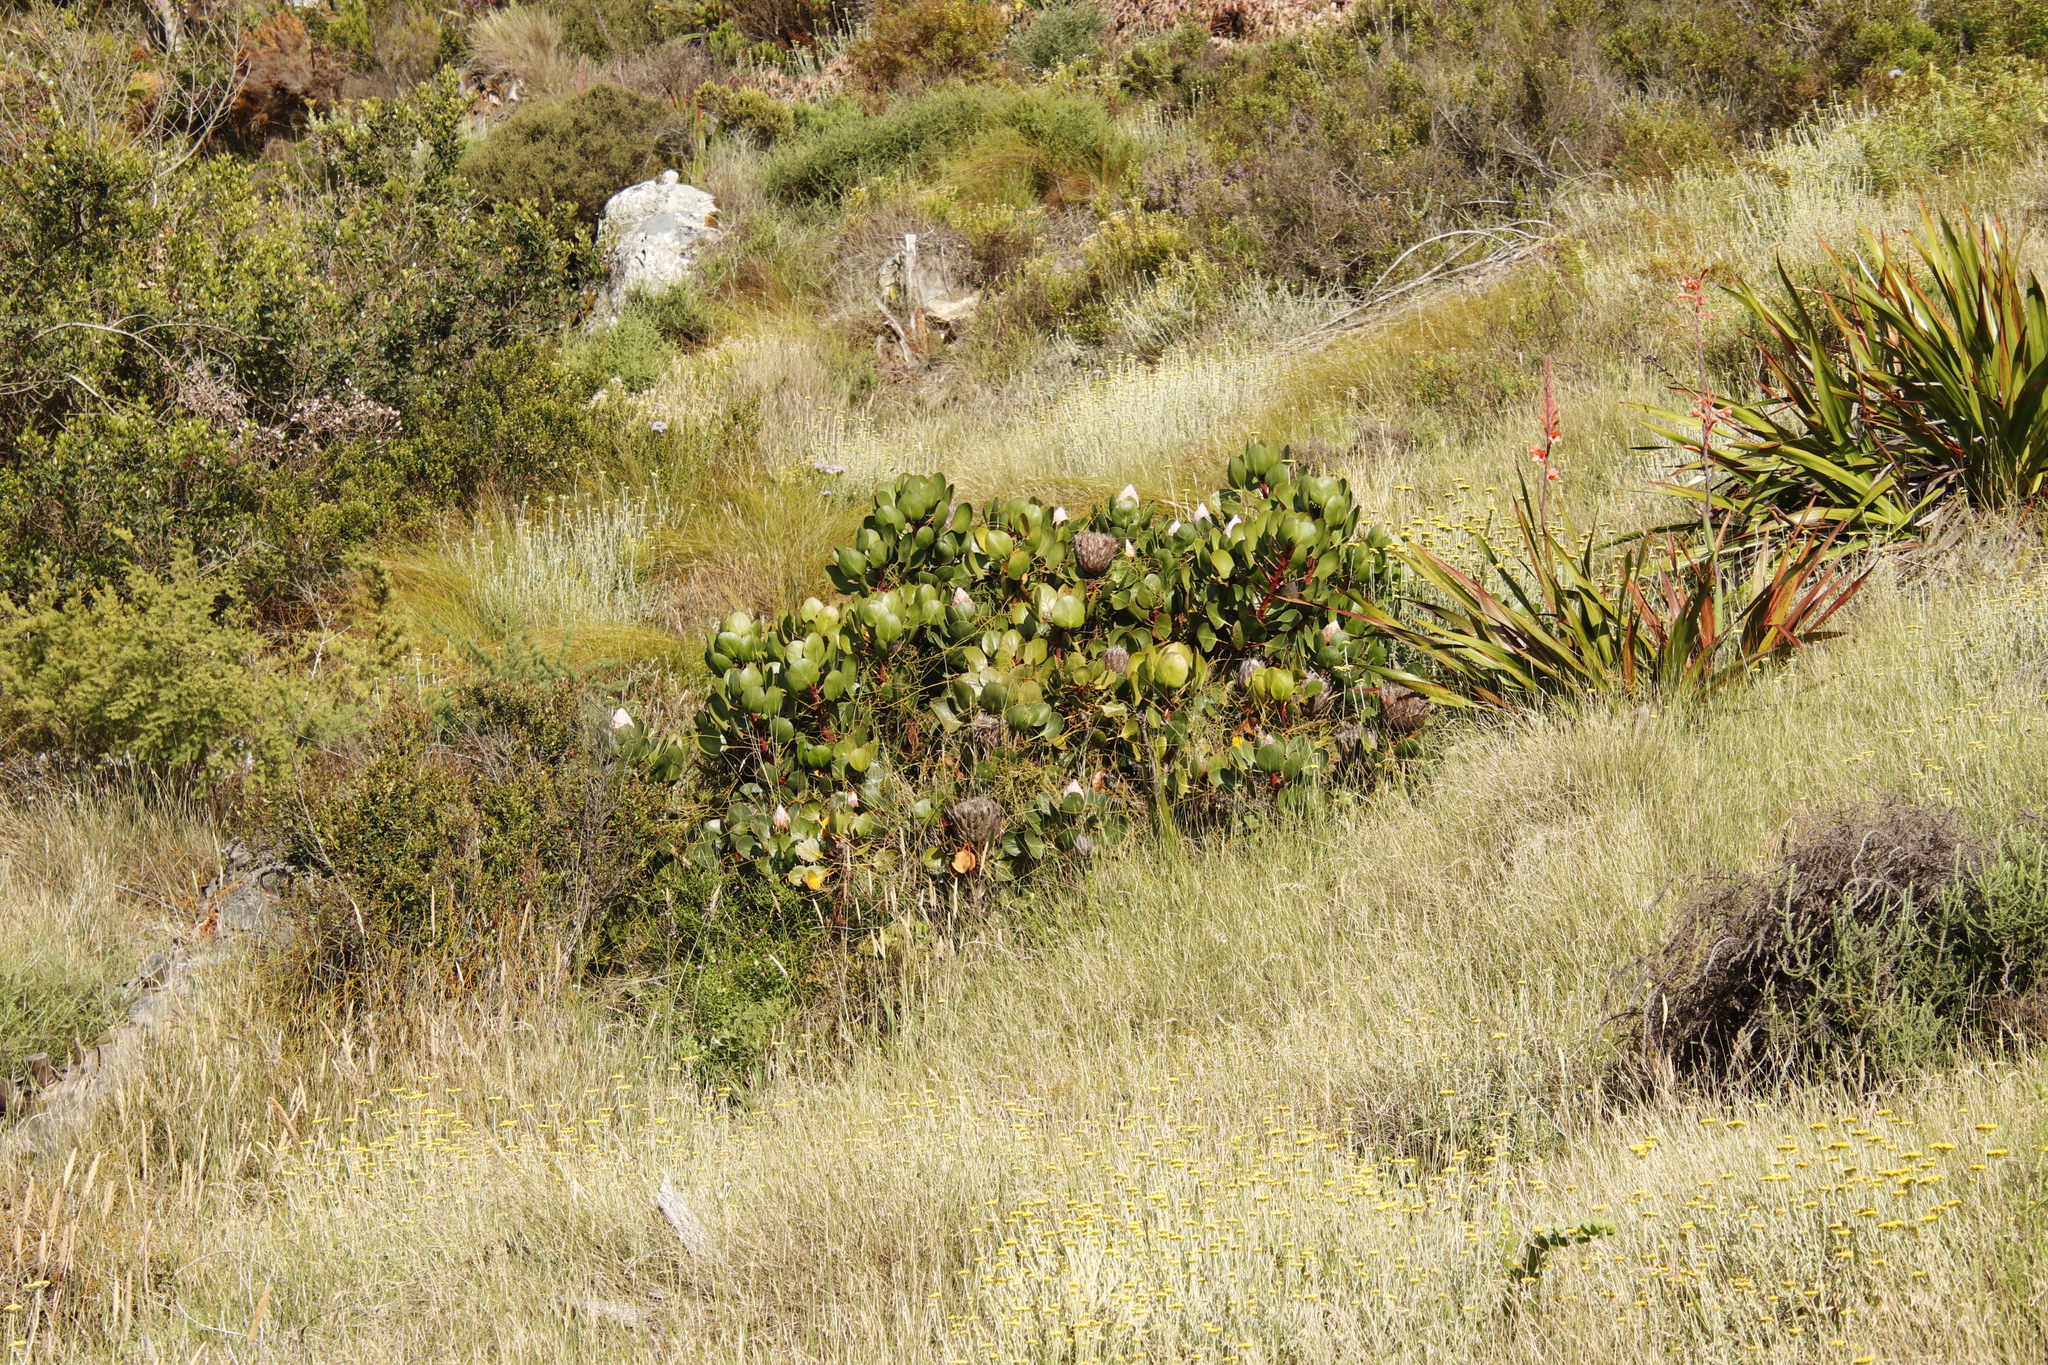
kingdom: Plantae
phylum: Tracheophyta
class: Magnoliopsida
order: Proteales
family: Proteaceae
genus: Protea
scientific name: Protea cynaroides
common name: King protea
